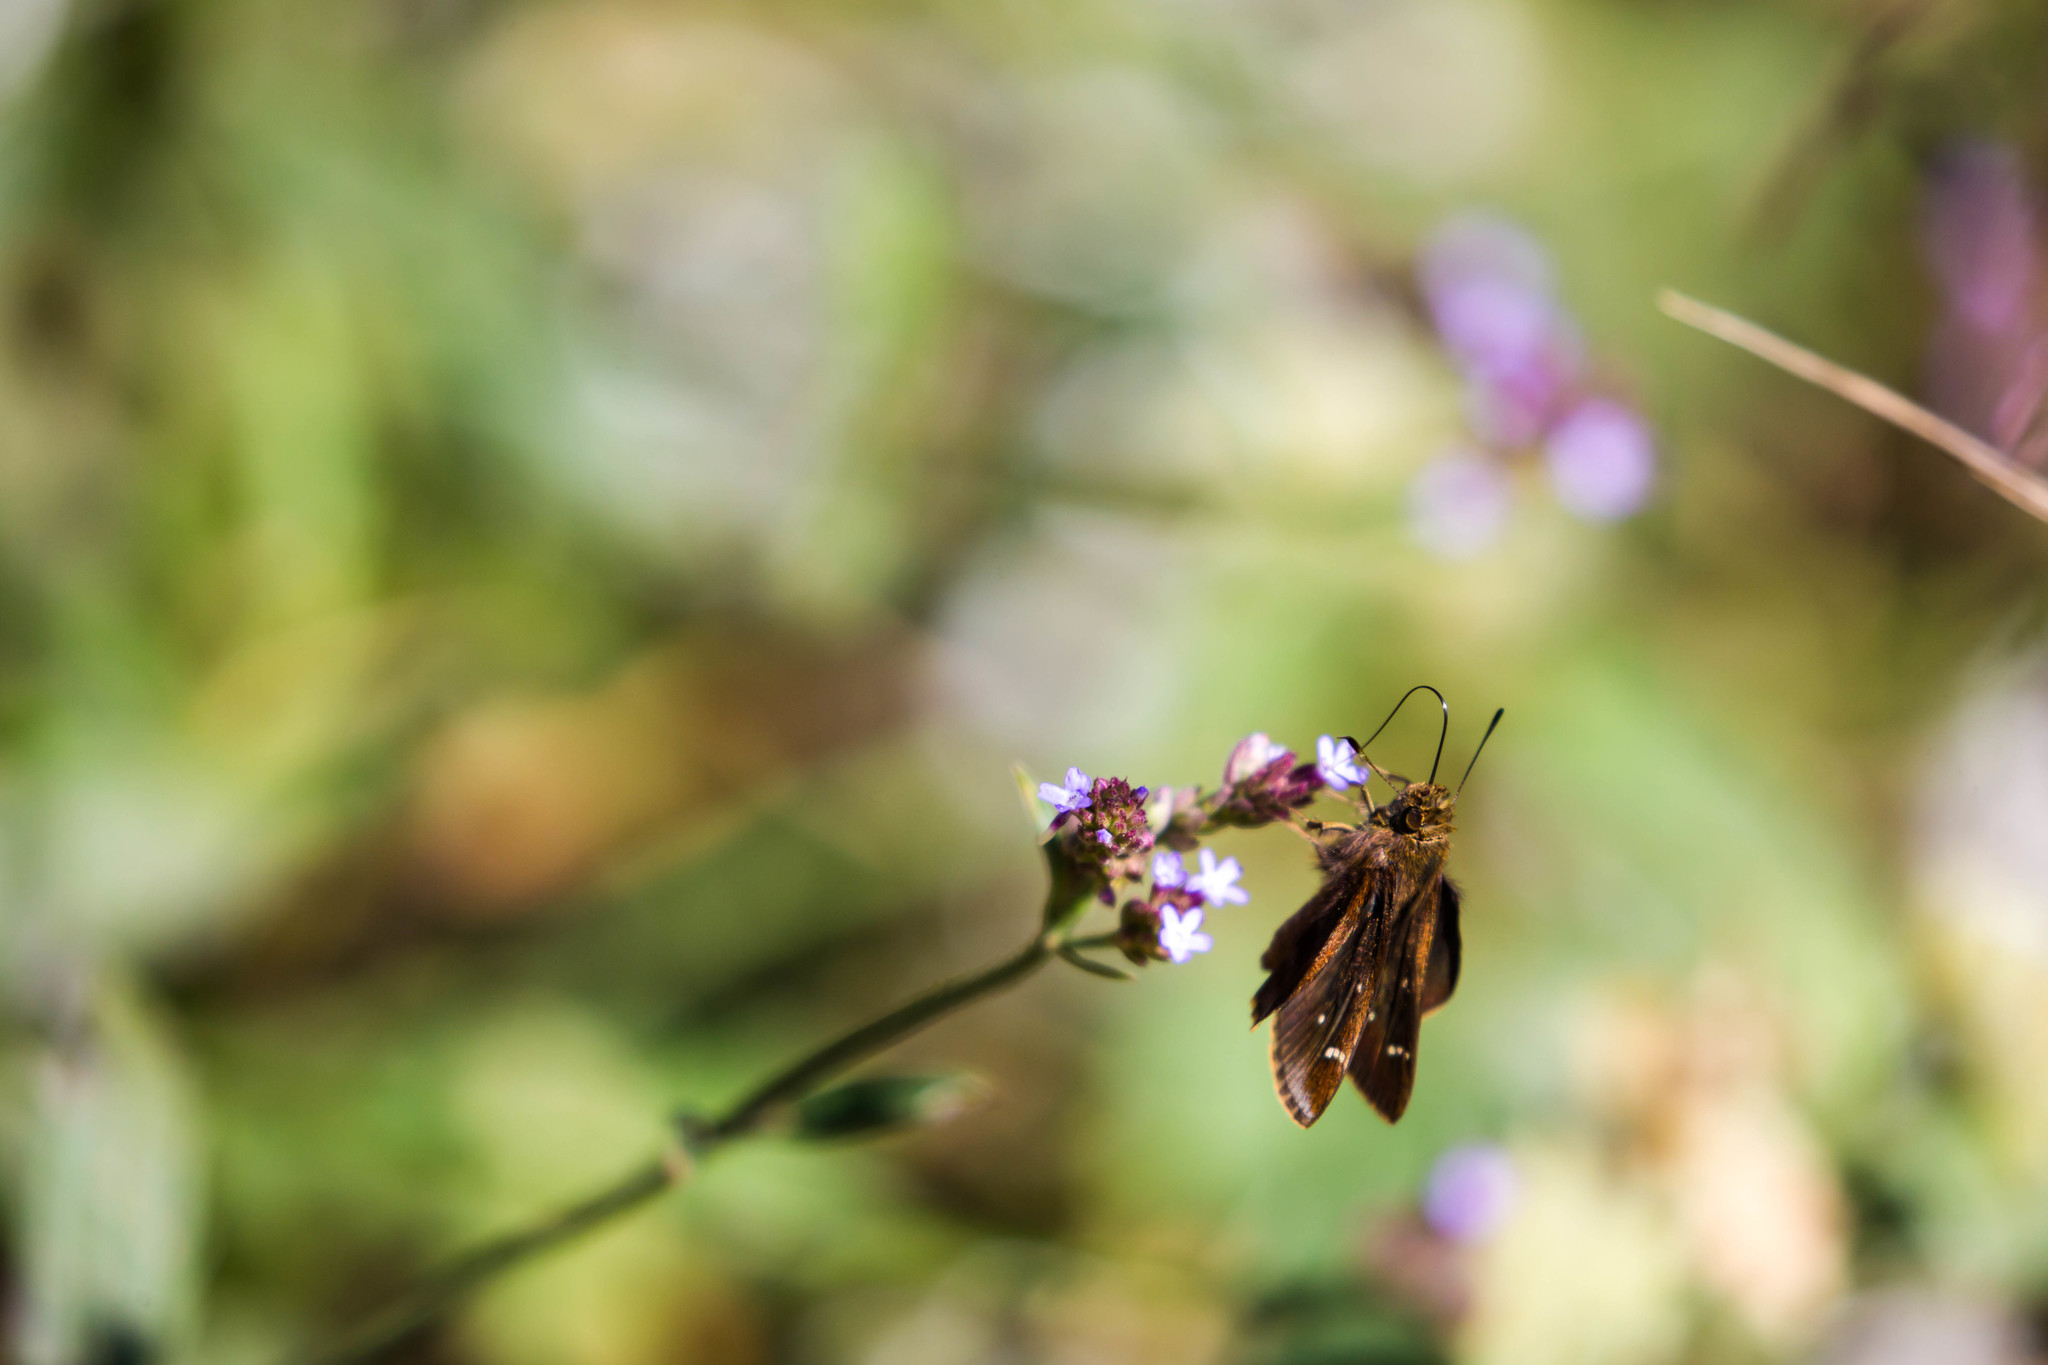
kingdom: Animalia
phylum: Arthropoda
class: Insecta
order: Lepidoptera
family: Hesperiidae
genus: Lerema
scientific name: Lerema accius
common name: Clouded skipper
